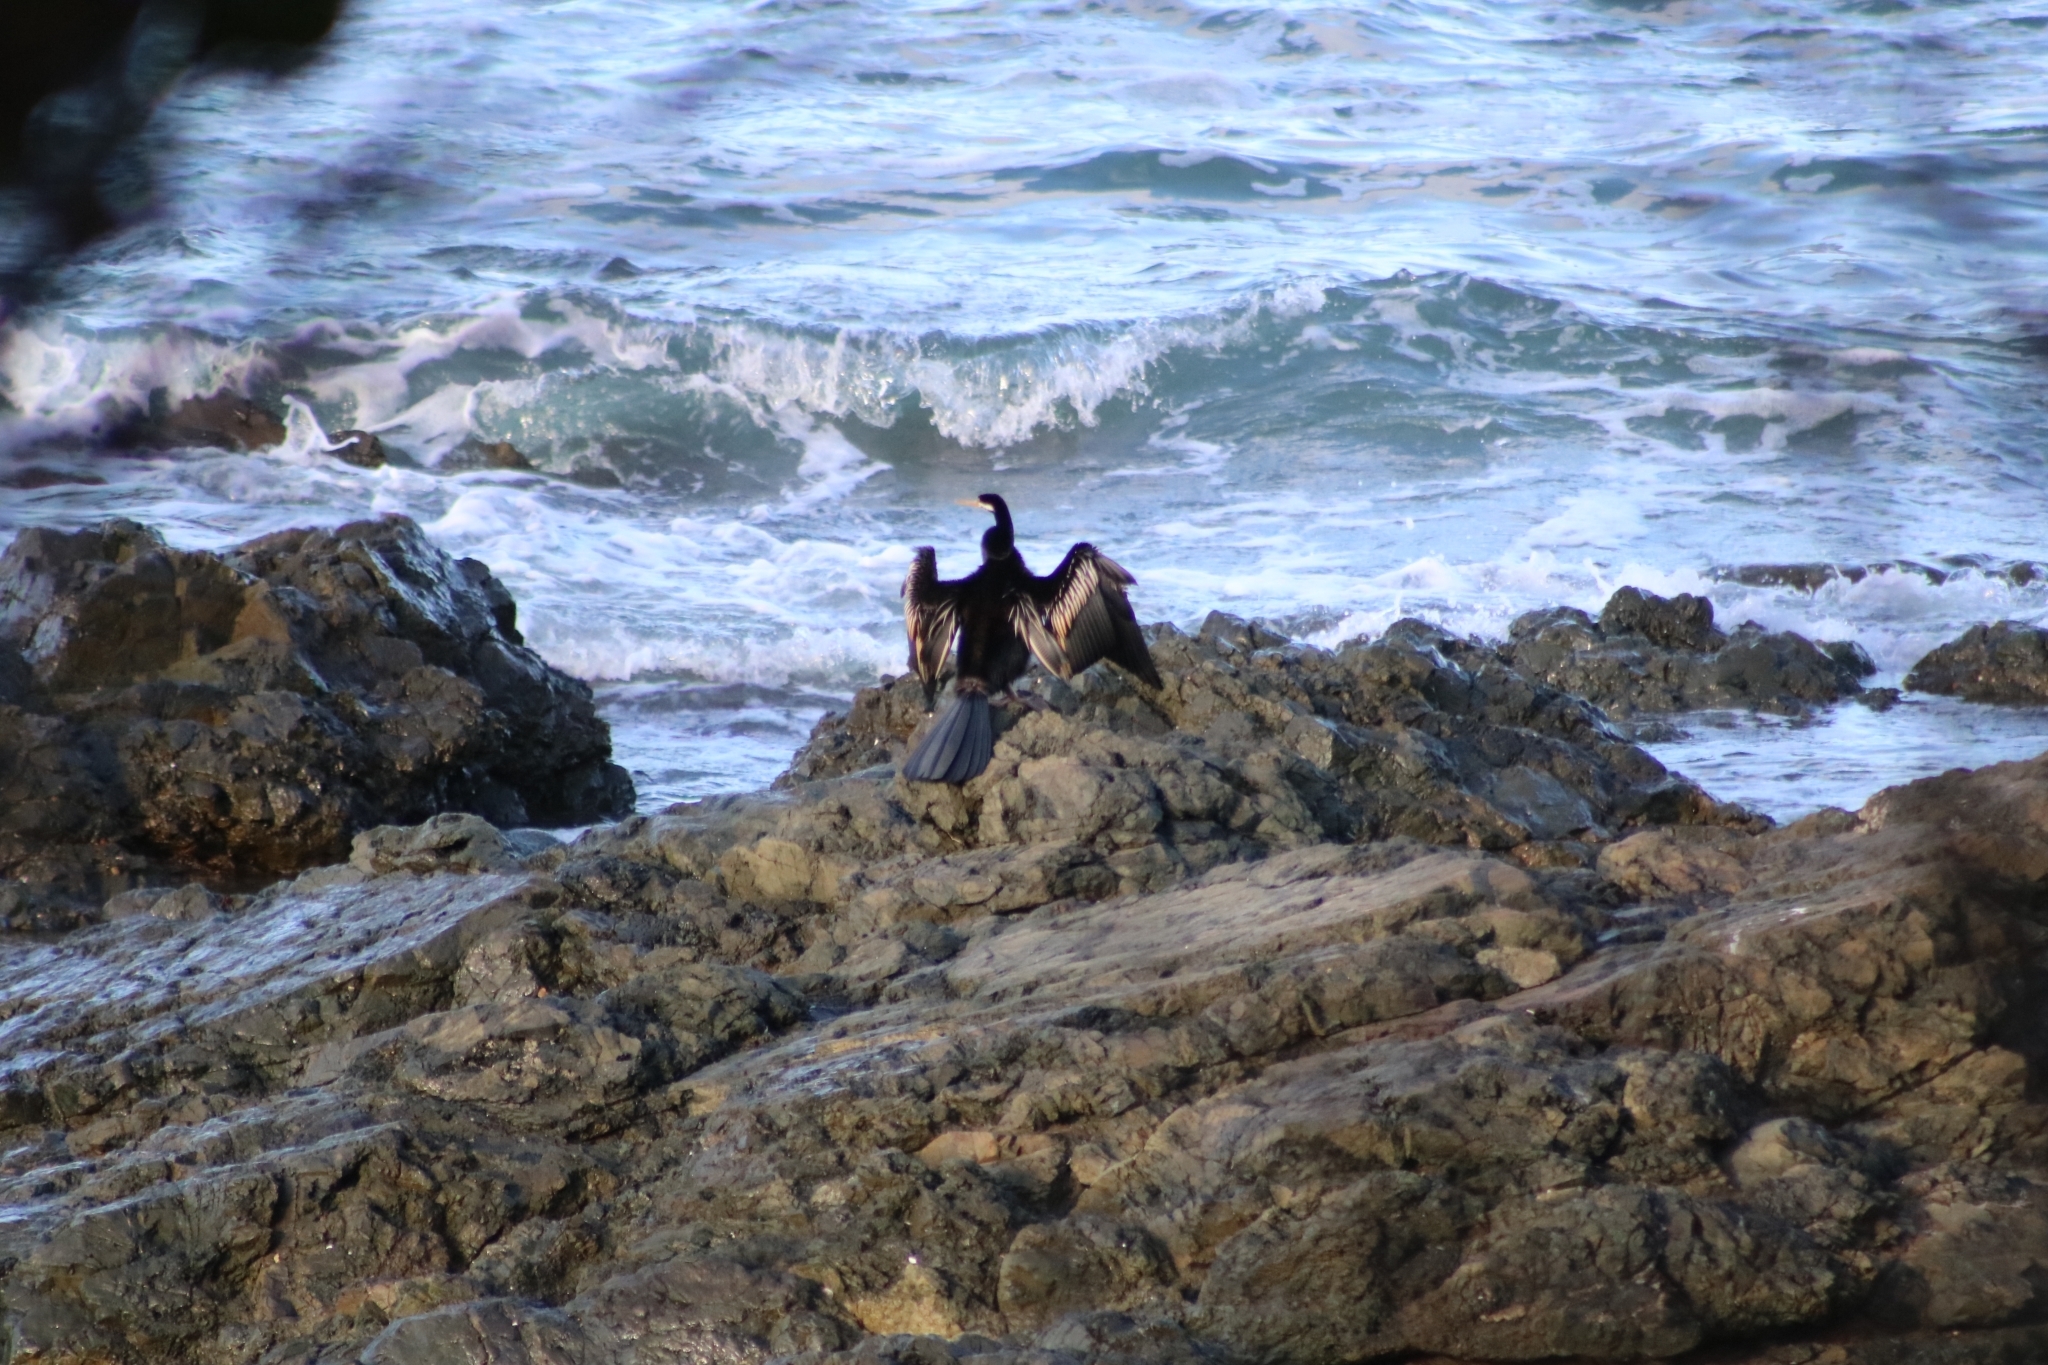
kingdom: Animalia
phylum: Chordata
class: Aves
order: Suliformes
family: Anhingidae
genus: Anhinga
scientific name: Anhinga novaehollandiae
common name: Australasian darter
